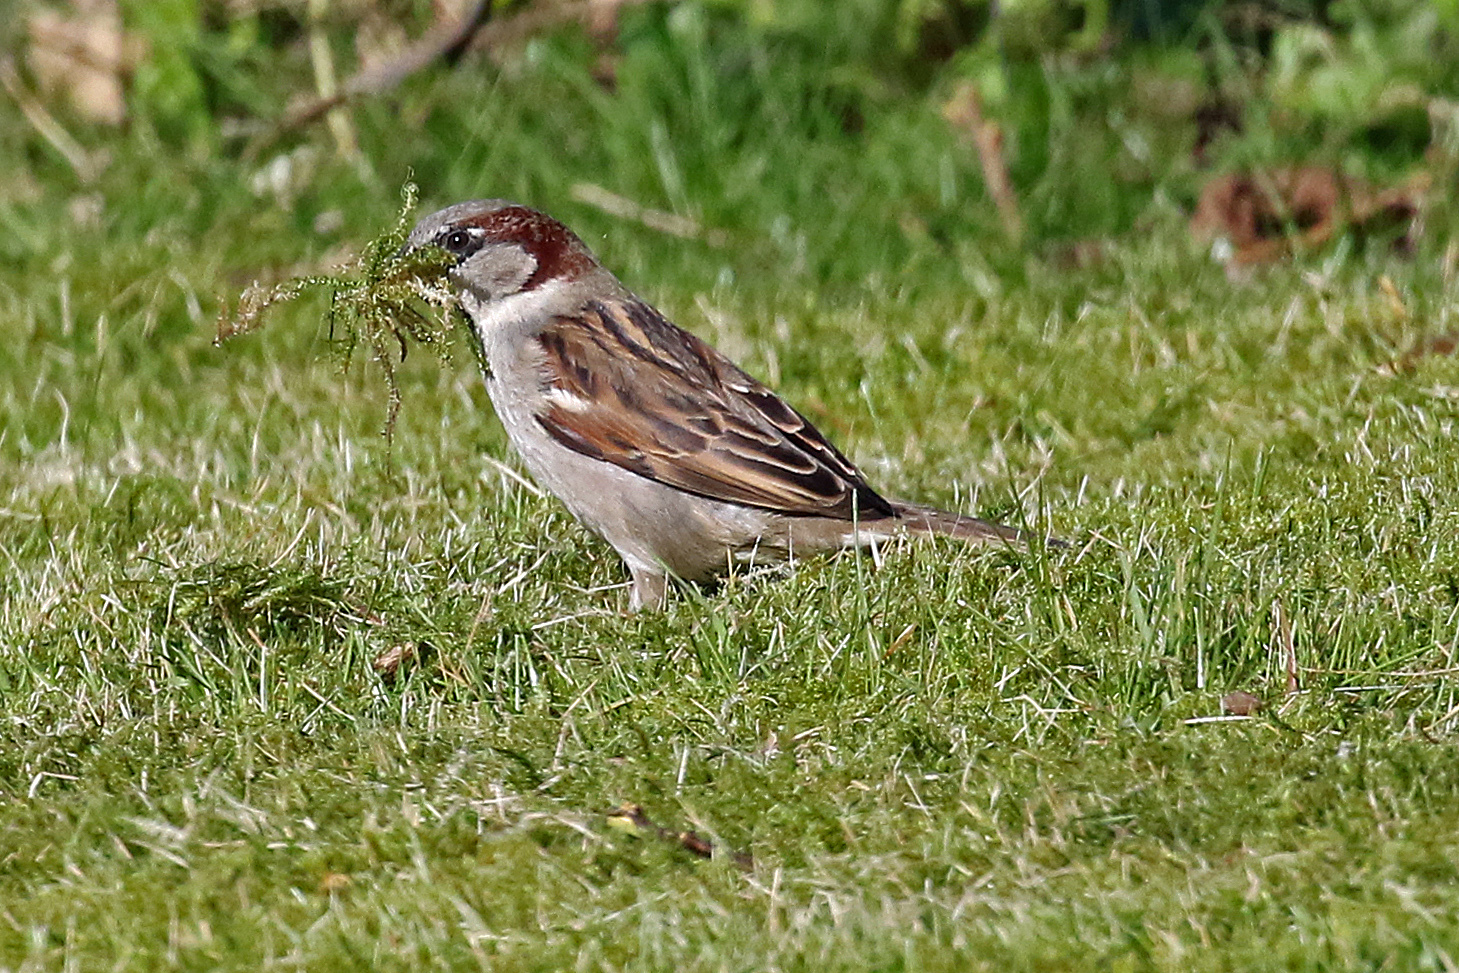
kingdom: Animalia
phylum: Chordata
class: Aves
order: Passeriformes
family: Passeridae
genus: Passer
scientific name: Passer domesticus
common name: House sparrow
